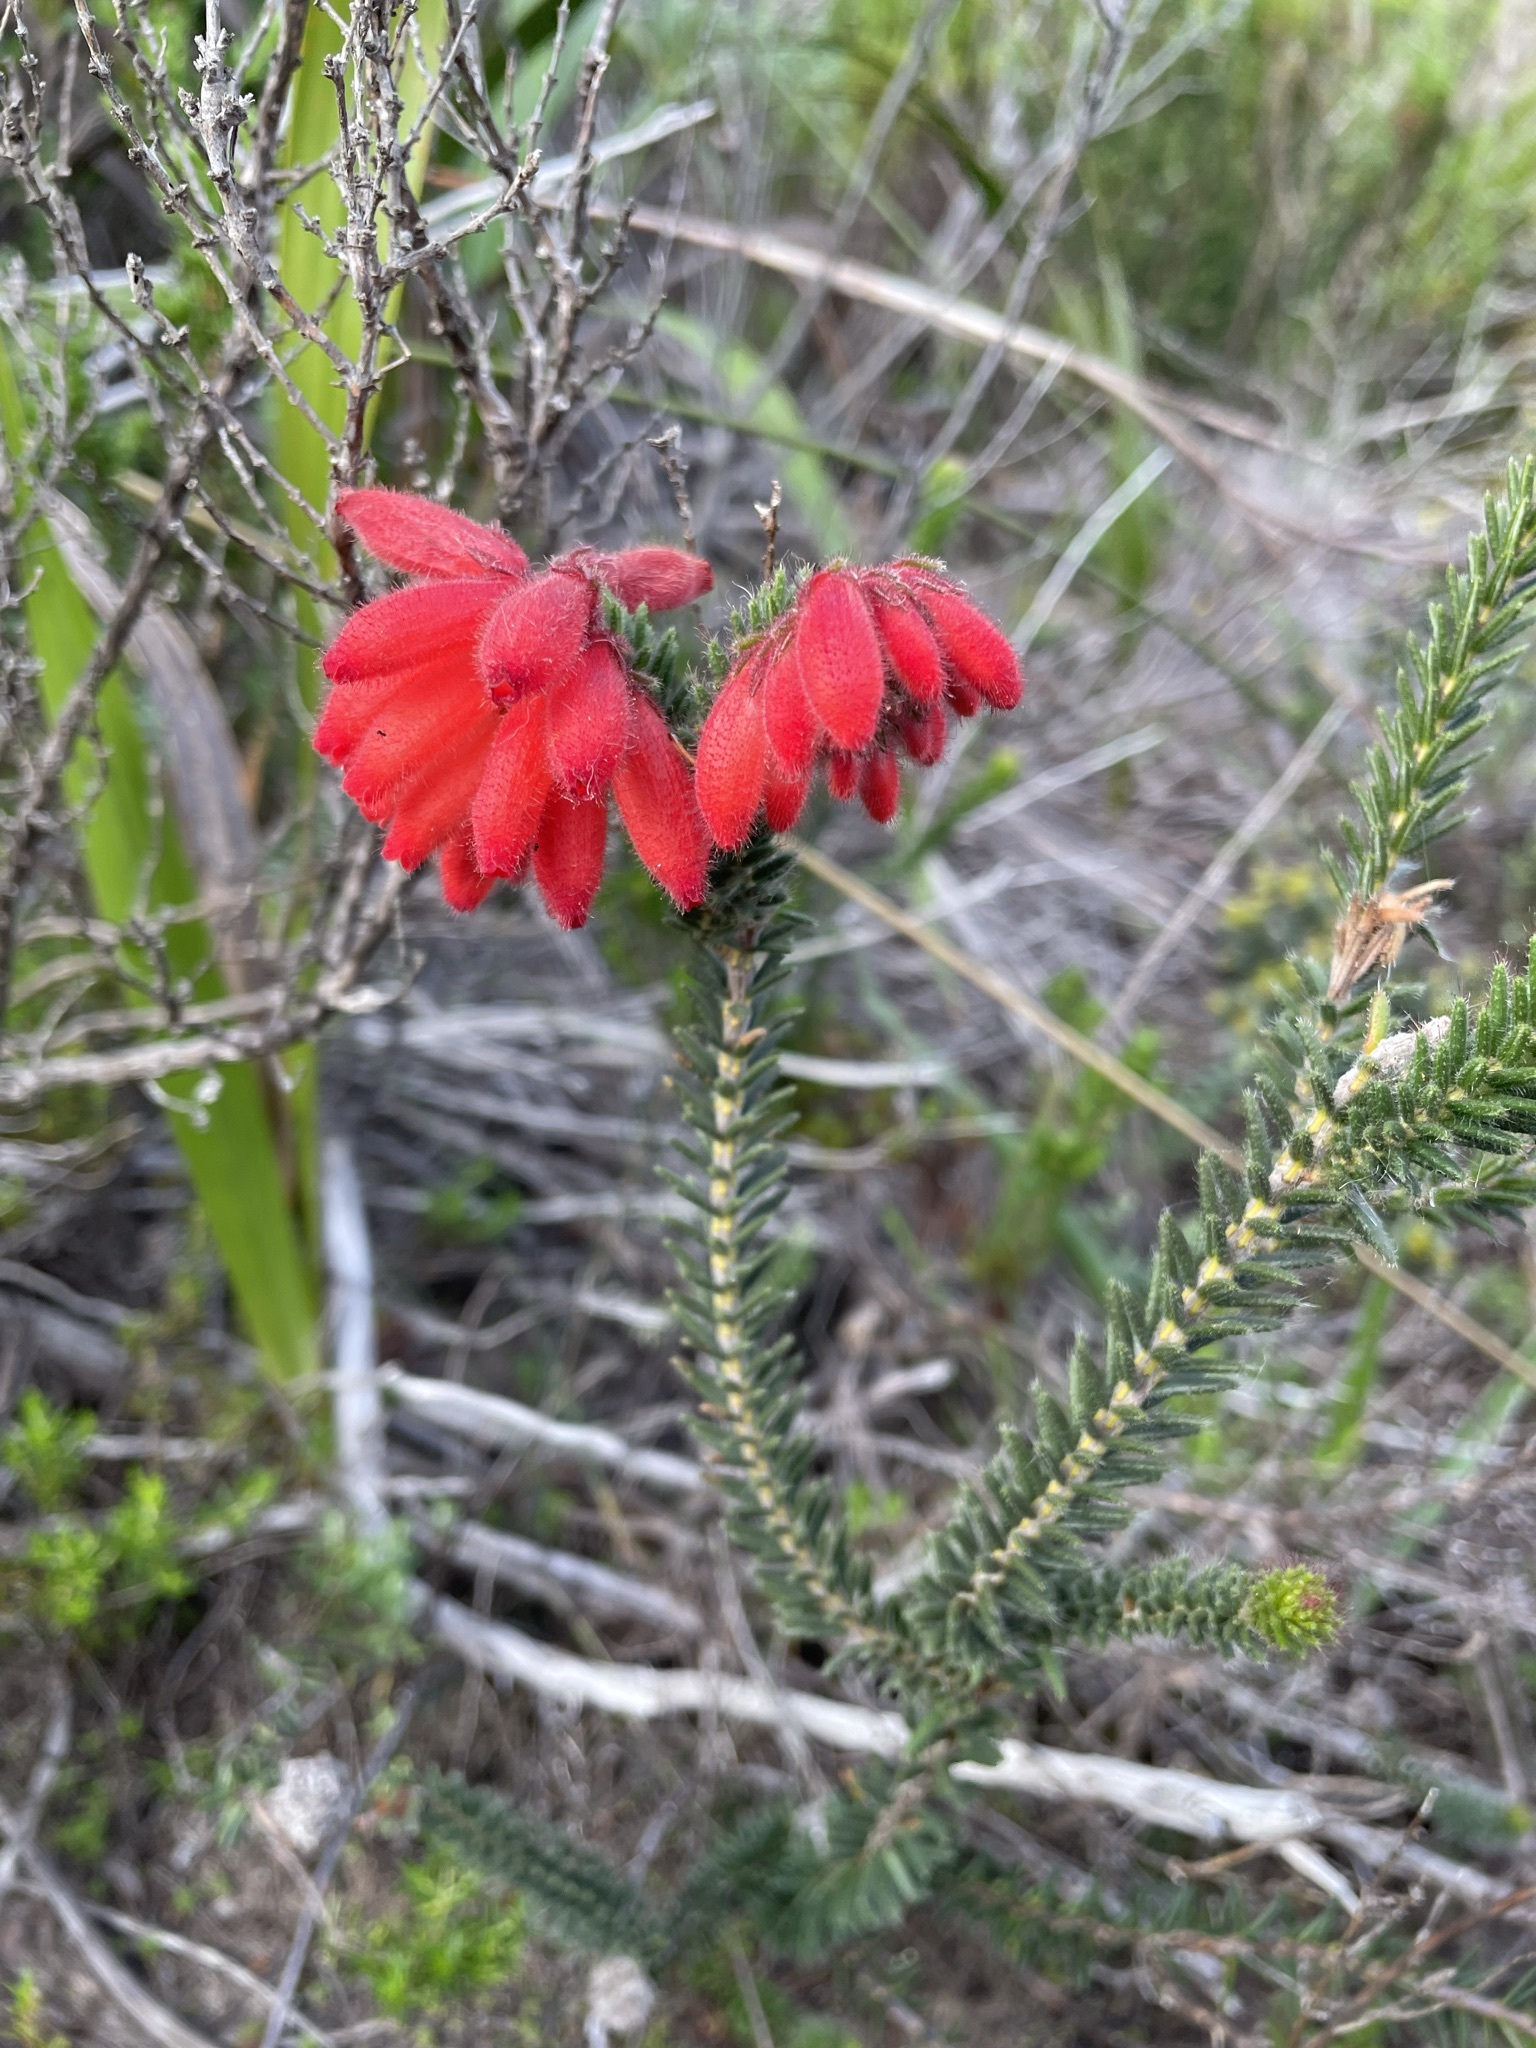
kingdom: Plantae
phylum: Tracheophyta
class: Magnoliopsida
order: Ericales
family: Ericaceae
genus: Erica
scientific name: Erica cerinthoides
